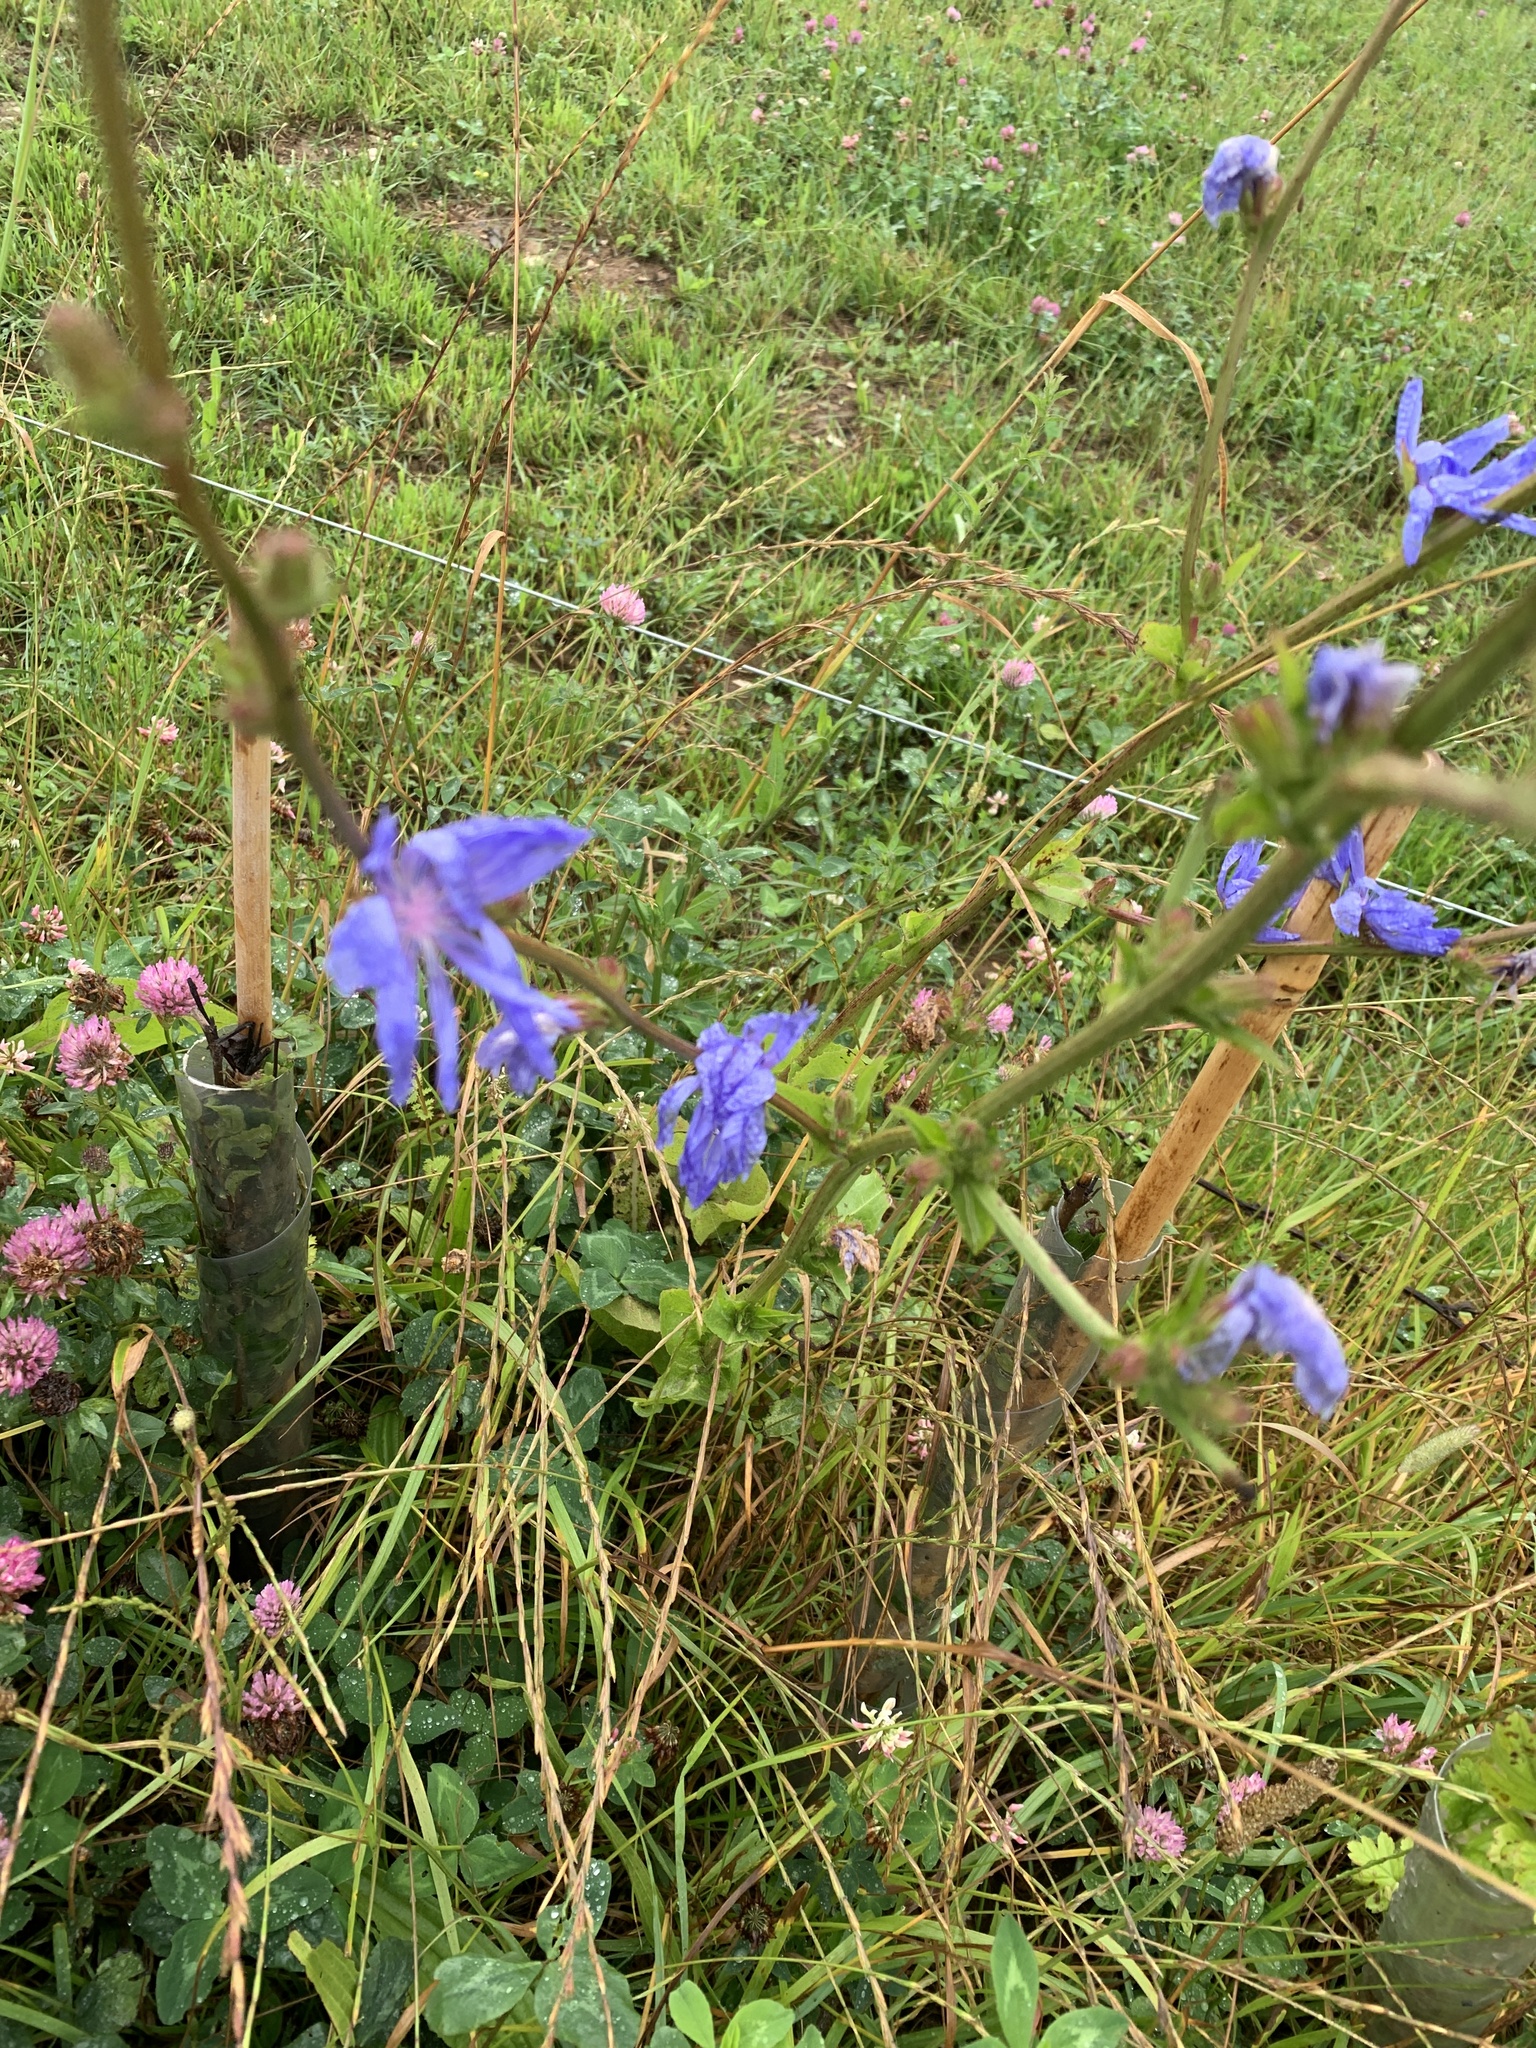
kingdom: Plantae
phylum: Tracheophyta
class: Magnoliopsida
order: Asterales
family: Asteraceae
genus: Cichorium
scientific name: Cichorium intybus
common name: Chicory
